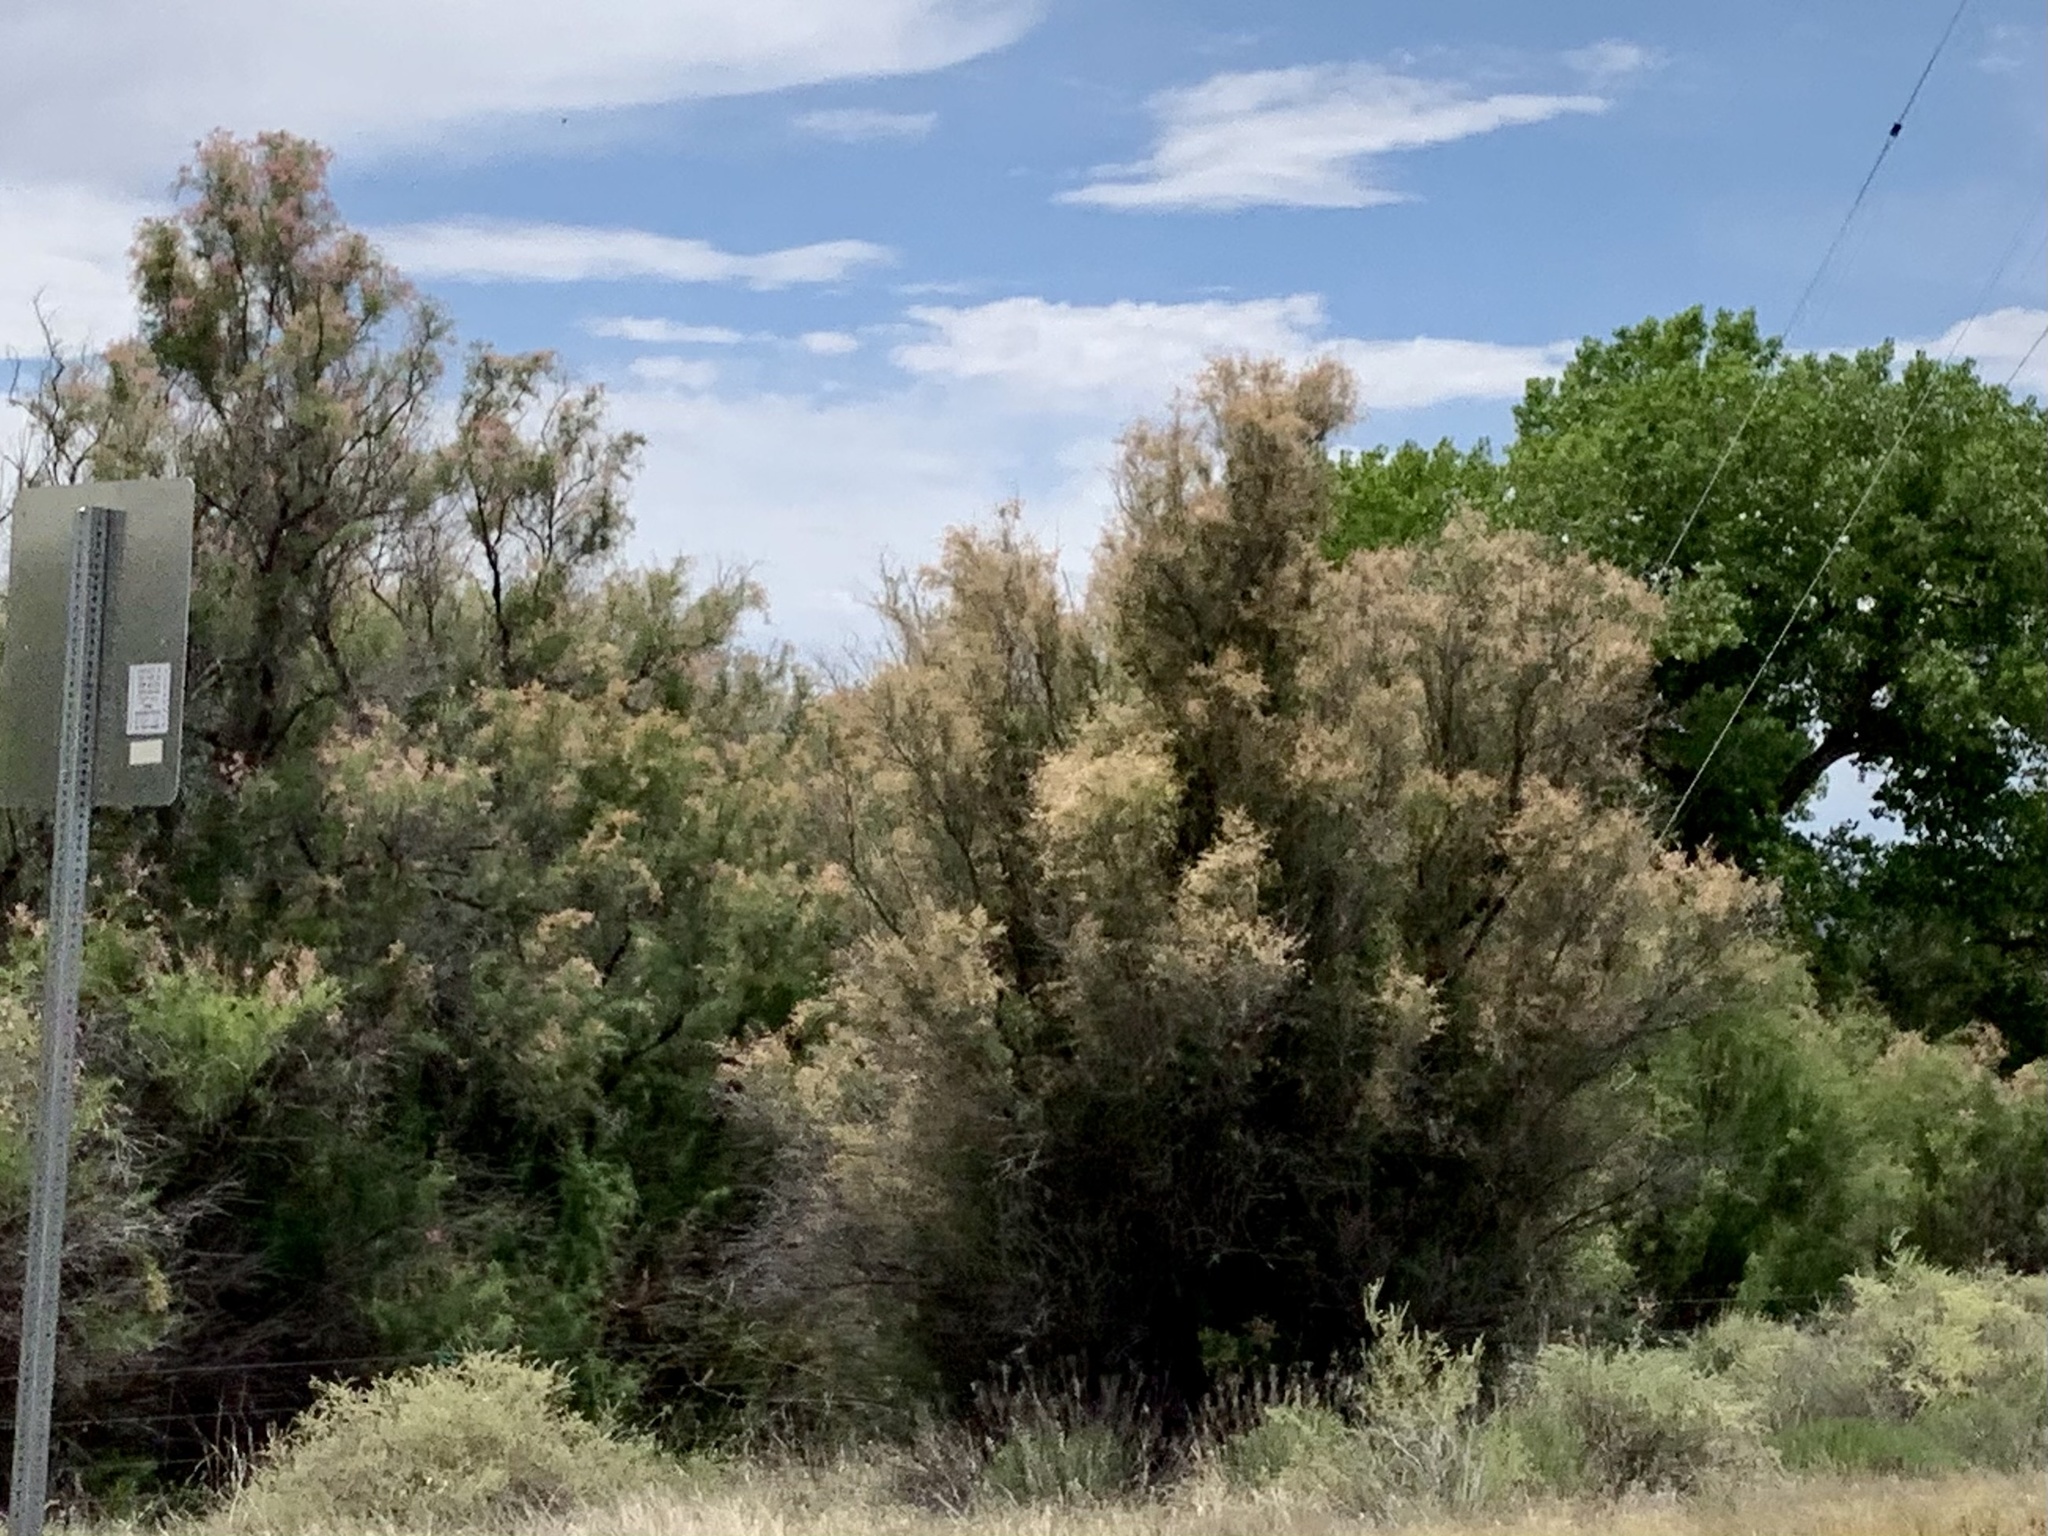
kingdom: Plantae
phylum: Tracheophyta
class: Magnoliopsida
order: Caryophyllales
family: Tamaricaceae
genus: Tamarix
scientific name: Tamarix
